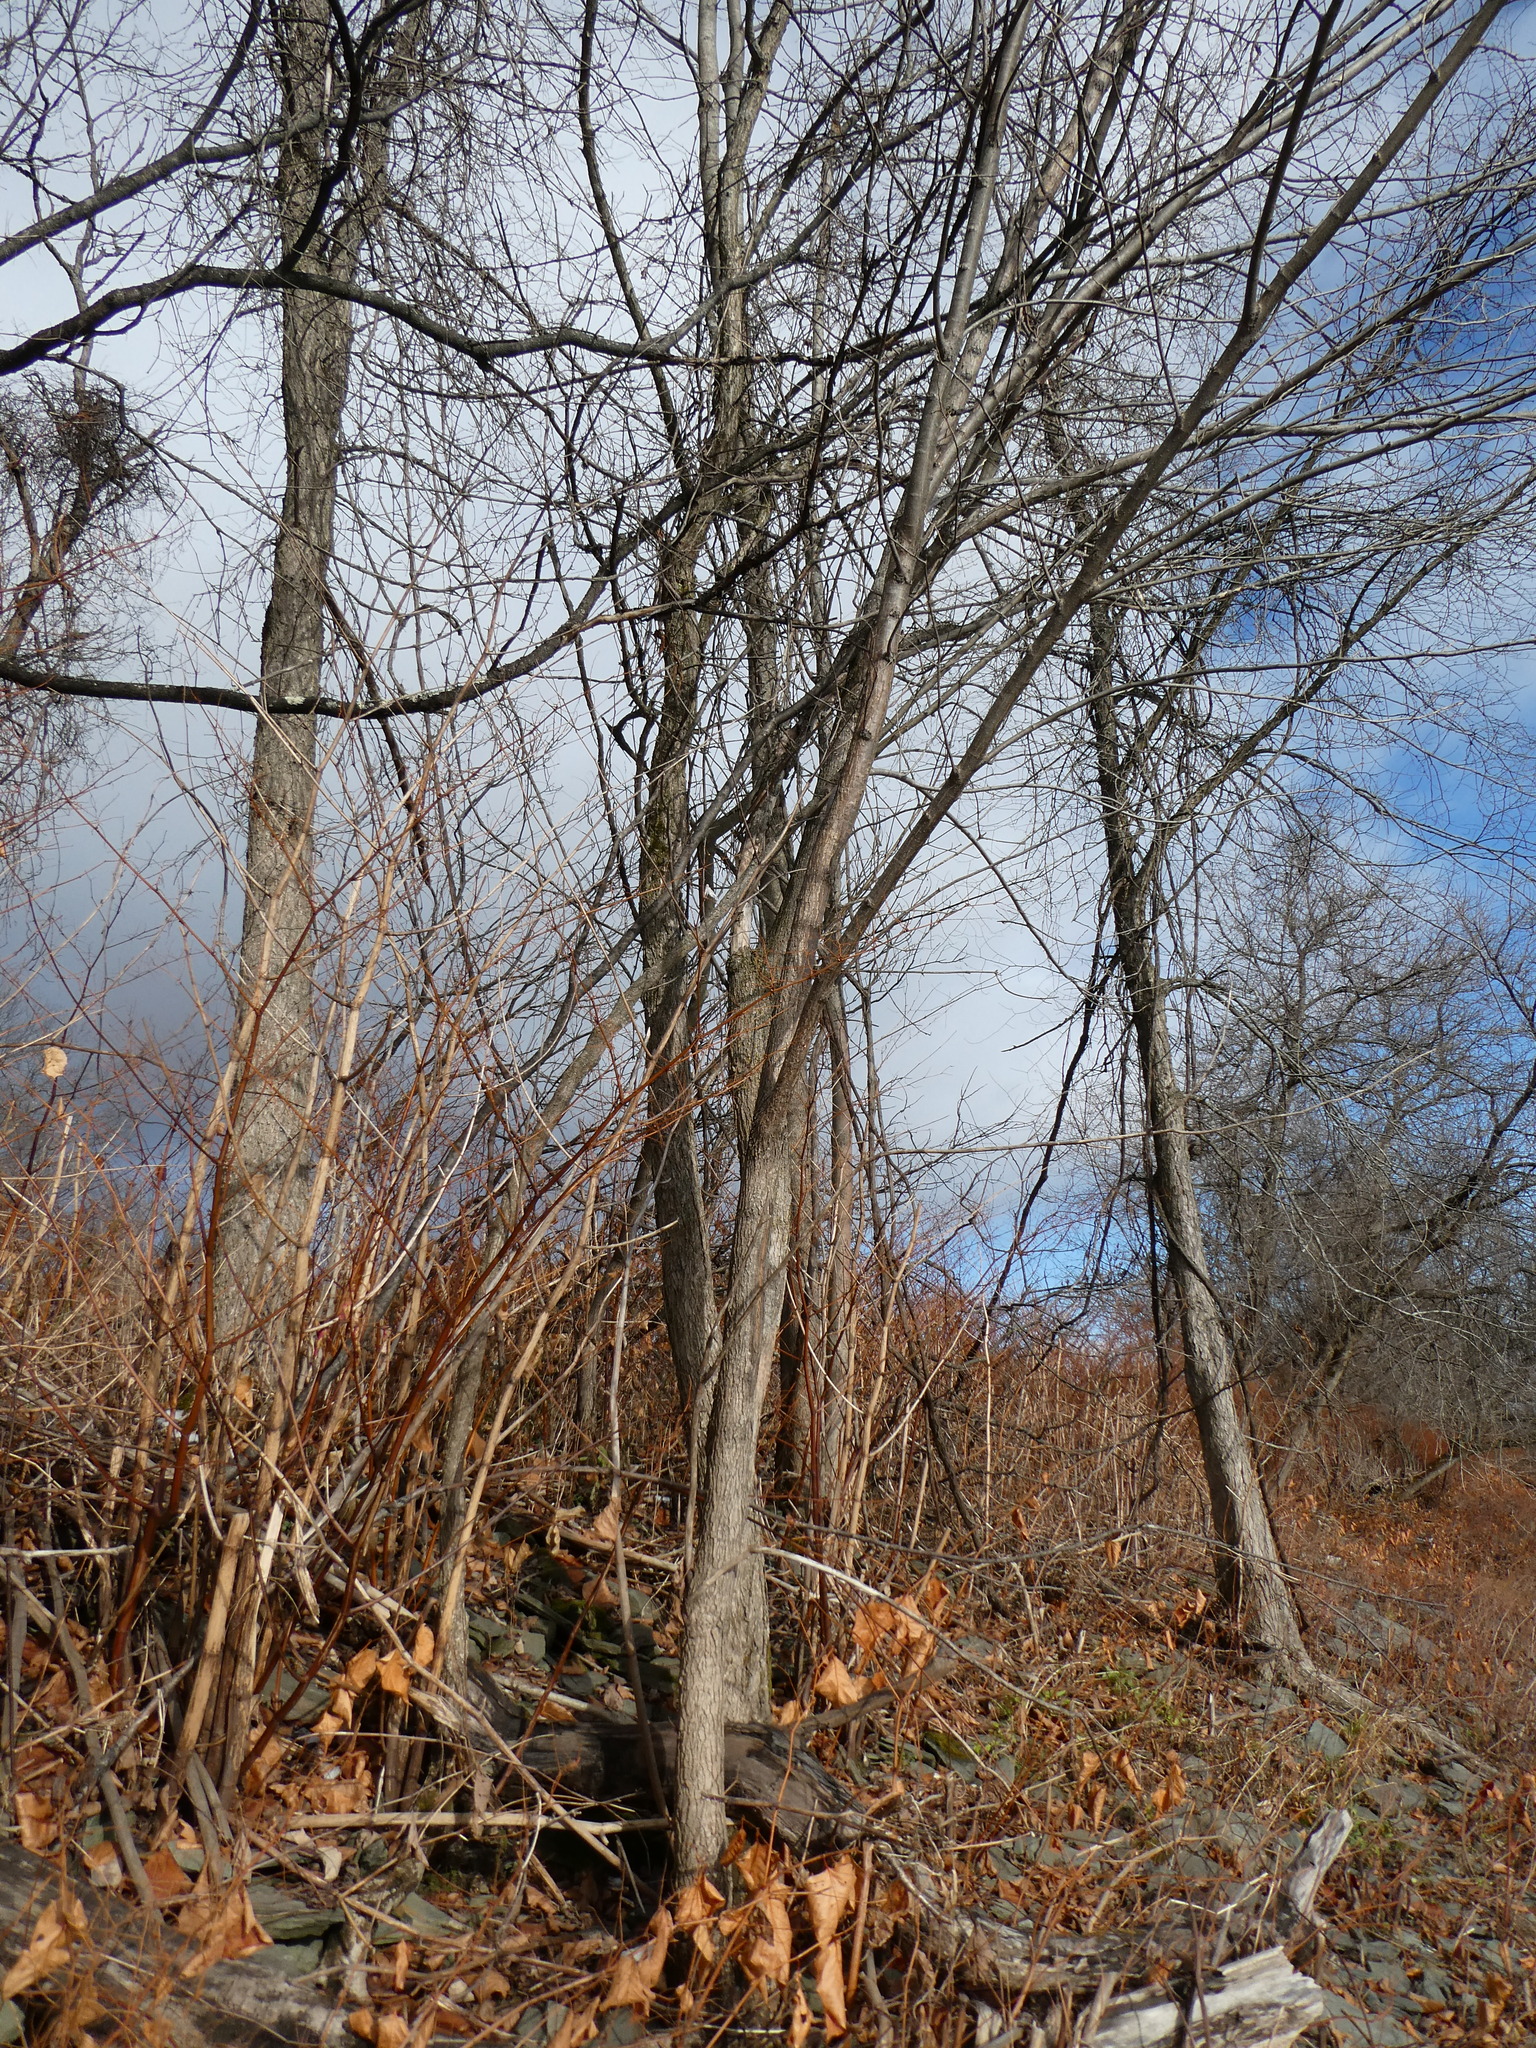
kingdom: Plantae
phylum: Tracheophyta
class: Magnoliopsida
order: Rosales
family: Ulmaceae
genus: Ulmus
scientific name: Ulmus rubra
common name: Slippery elm
